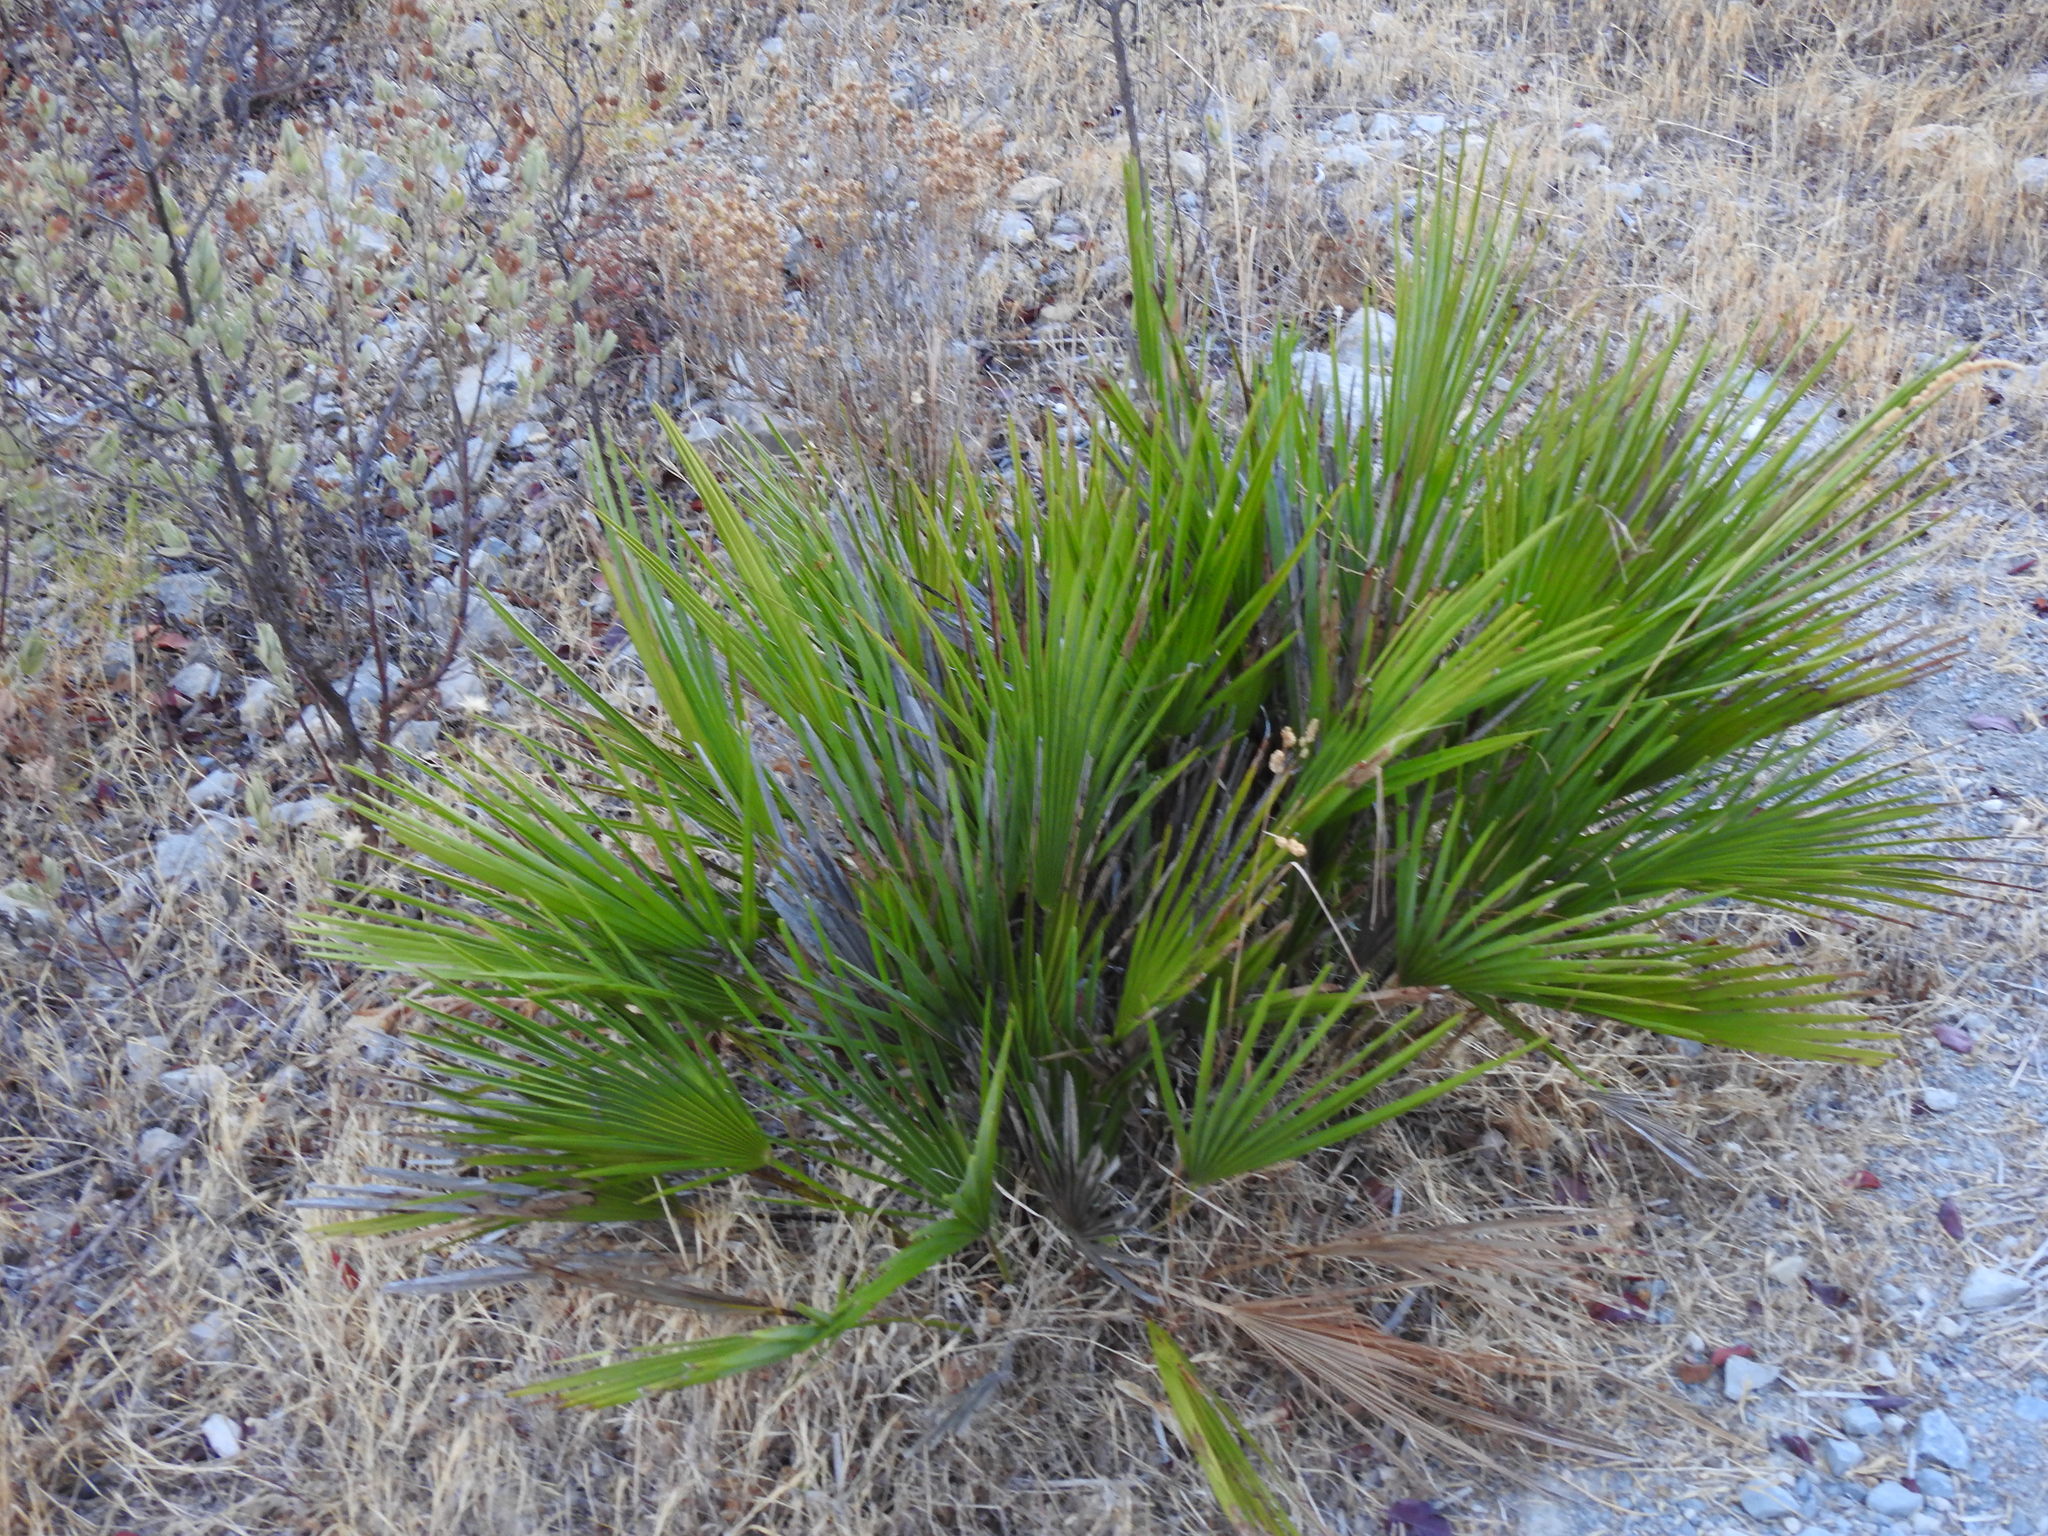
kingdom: Plantae
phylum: Tracheophyta
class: Liliopsida
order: Arecales
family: Arecaceae
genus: Chamaerops
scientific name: Chamaerops humilis
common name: Dwarf fan palm
